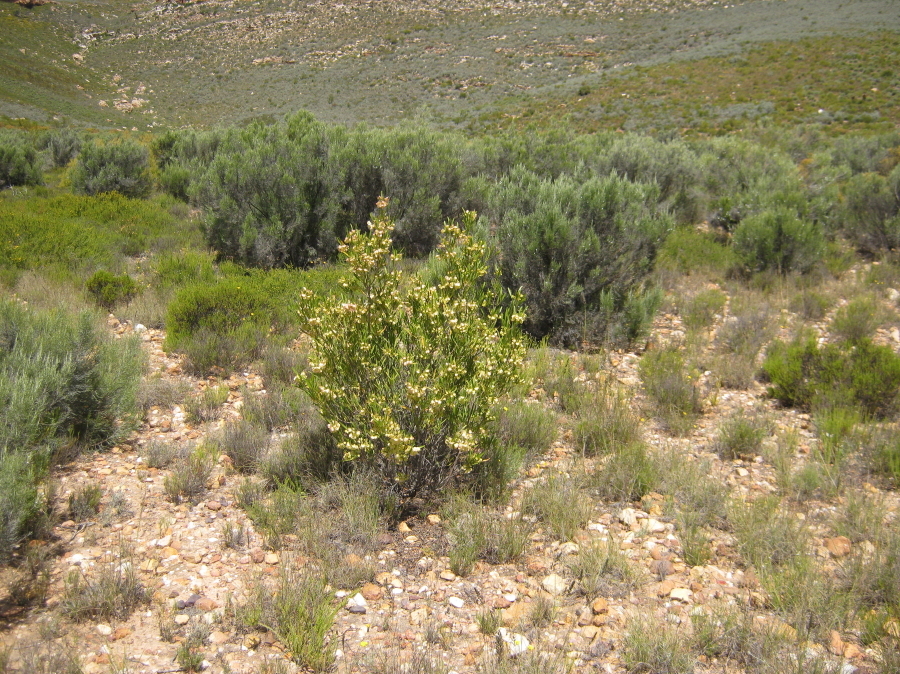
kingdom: Plantae
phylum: Tracheophyta
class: Magnoliopsida
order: Sapindales
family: Sapindaceae
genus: Dodonaea
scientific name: Dodonaea viscosa
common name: Hopbush
